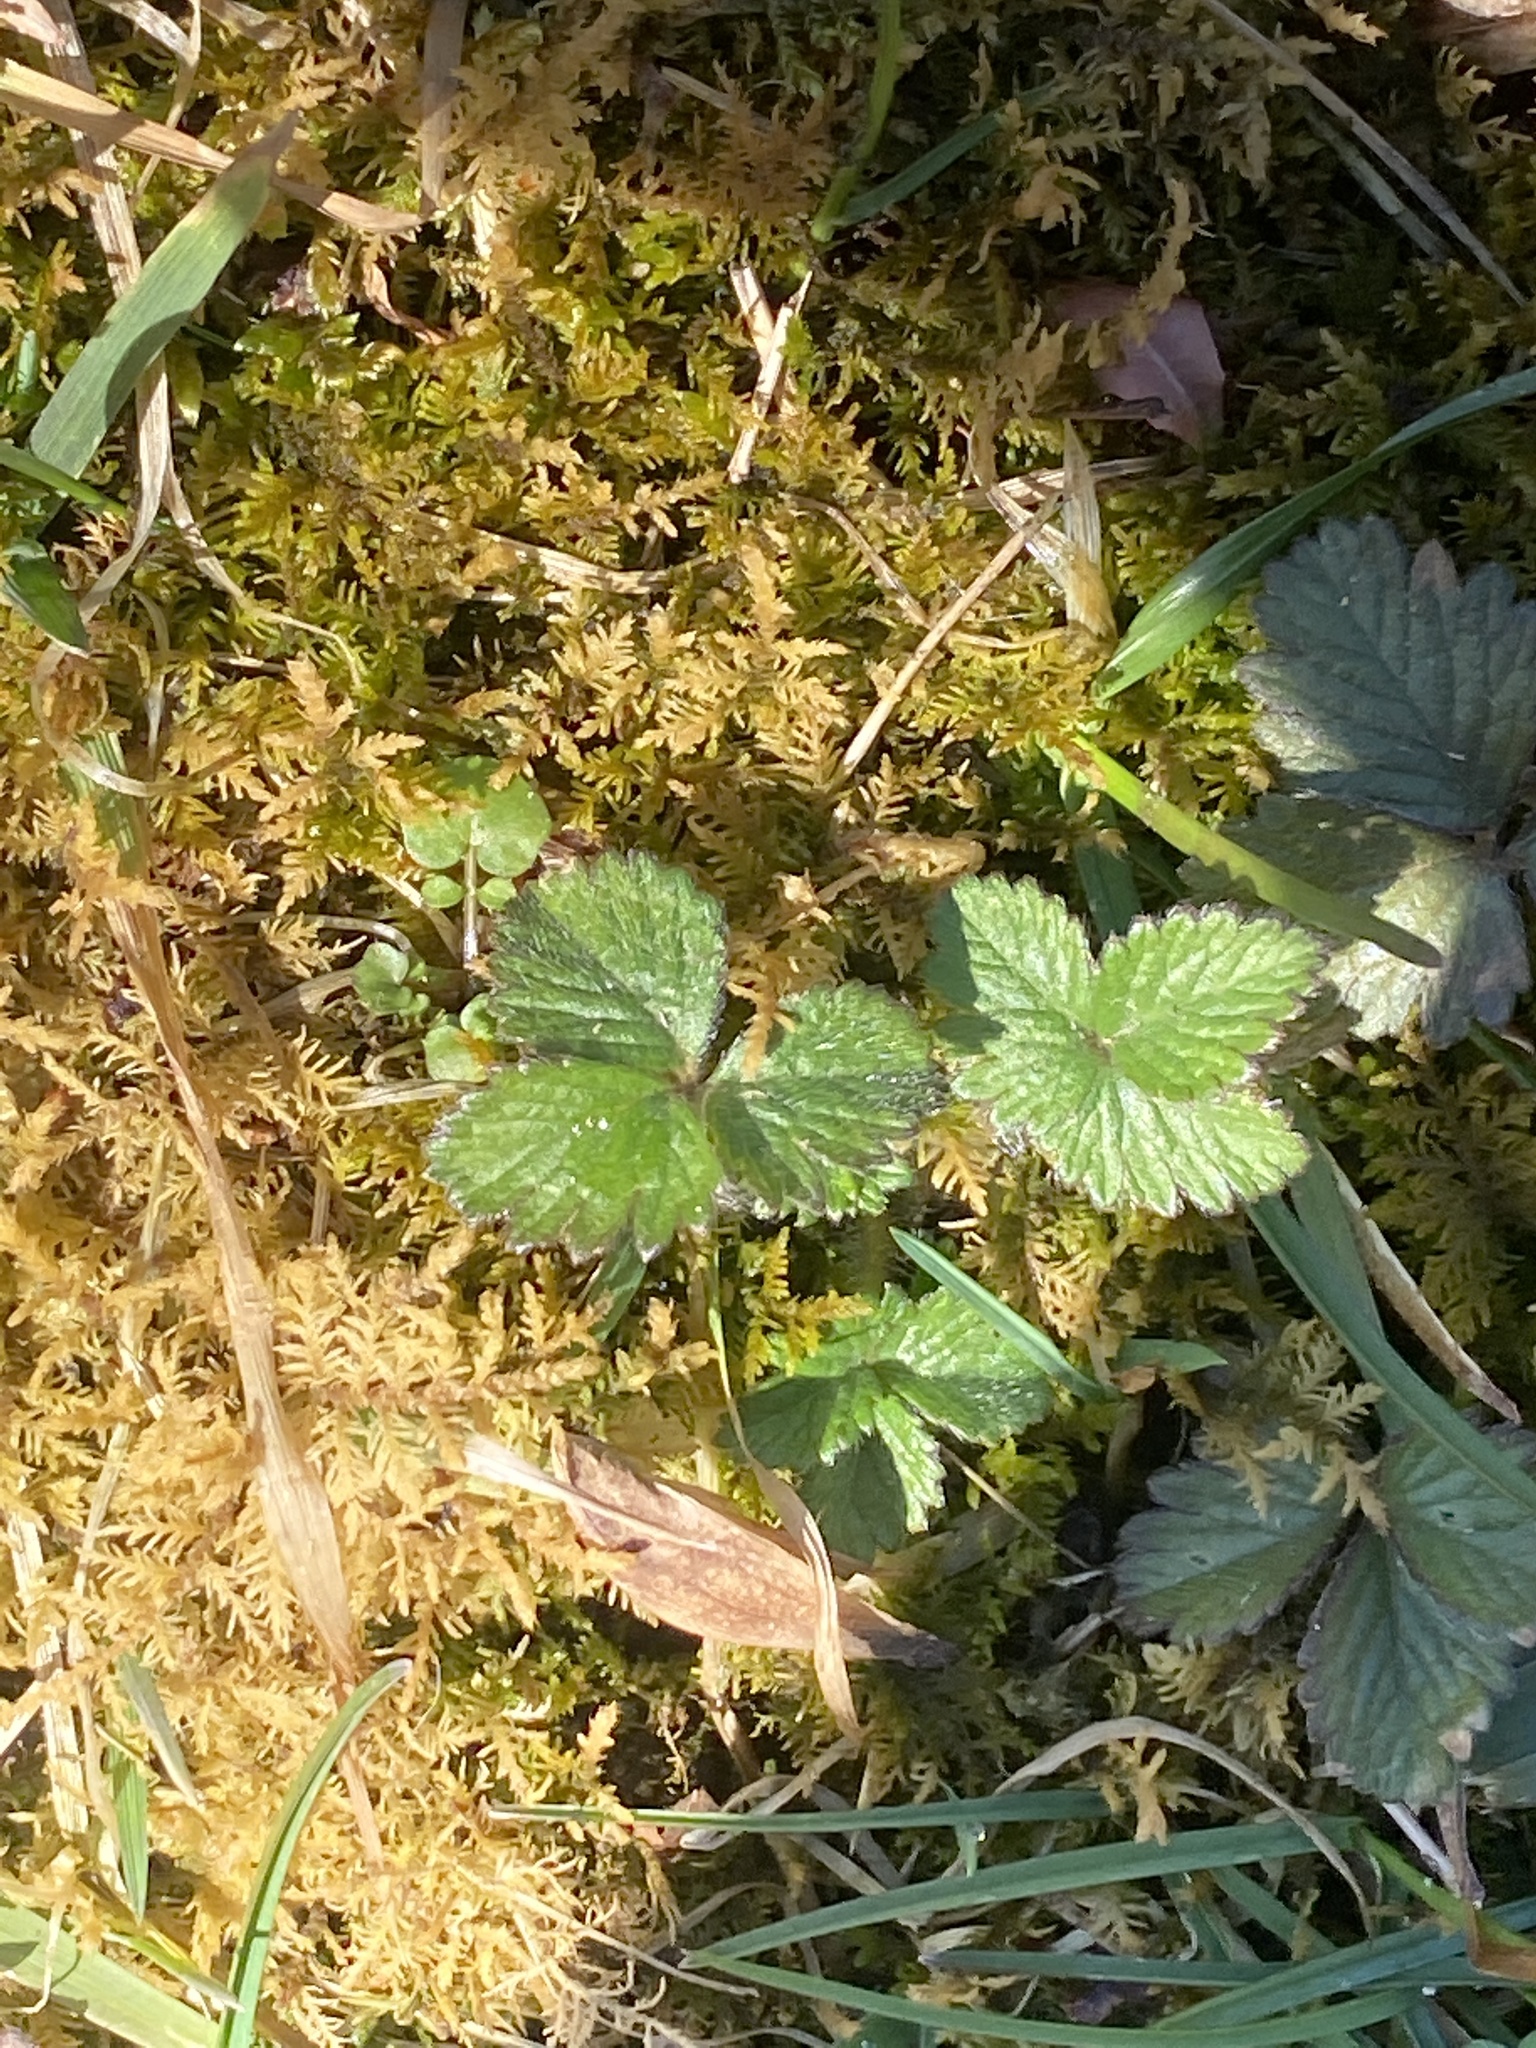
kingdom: Plantae
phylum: Tracheophyta
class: Magnoliopsida
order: Rosales
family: Rosaceae
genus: Potentilla
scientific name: Potentilla indica
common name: Yellow-flowered strawberry
